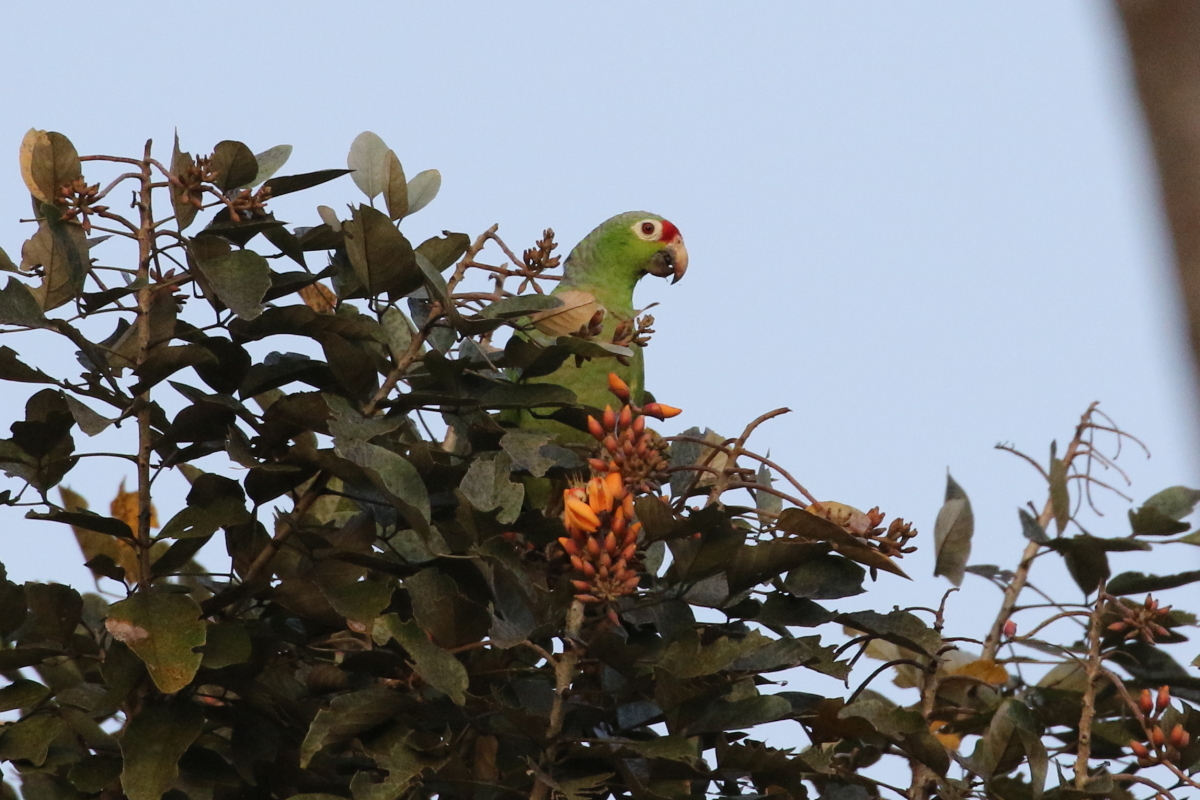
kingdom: Animalia
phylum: Chordata
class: Aves
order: Psittaciformes
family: Psittacidae
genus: Amazona
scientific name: Amazona autumnalis
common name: Red-lored amazon
